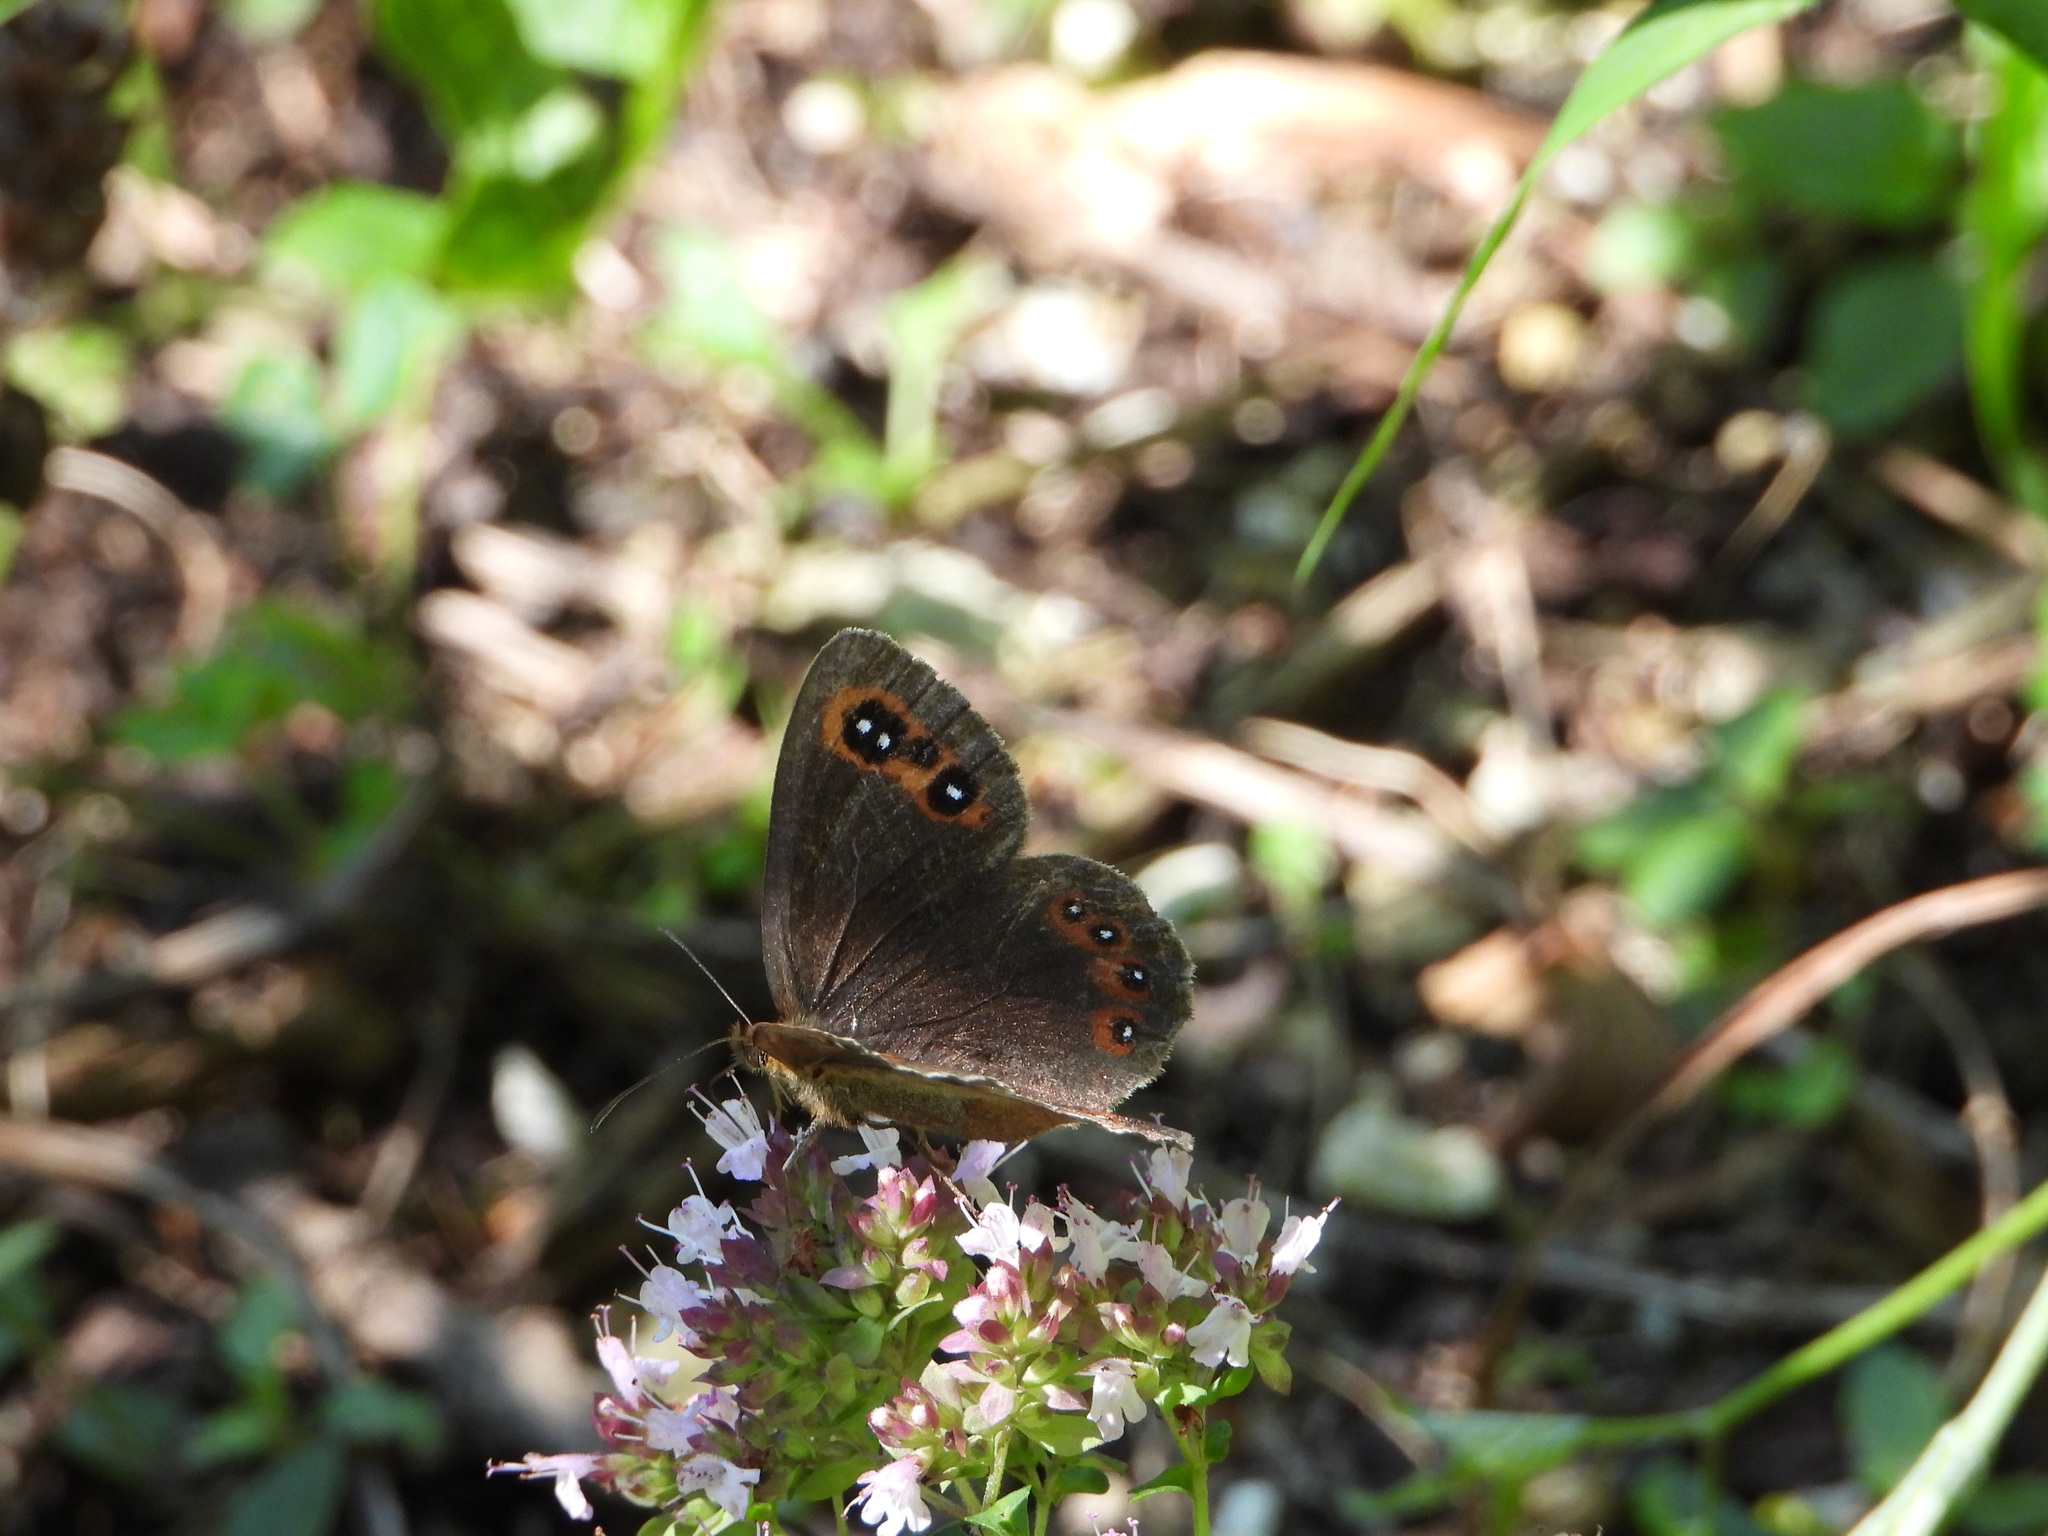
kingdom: Animalia
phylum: Arthropoda
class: Insecta
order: Lepidoptera
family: Nymphalidae
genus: Erebia
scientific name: Erebia aethiops
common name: Scotch argus
